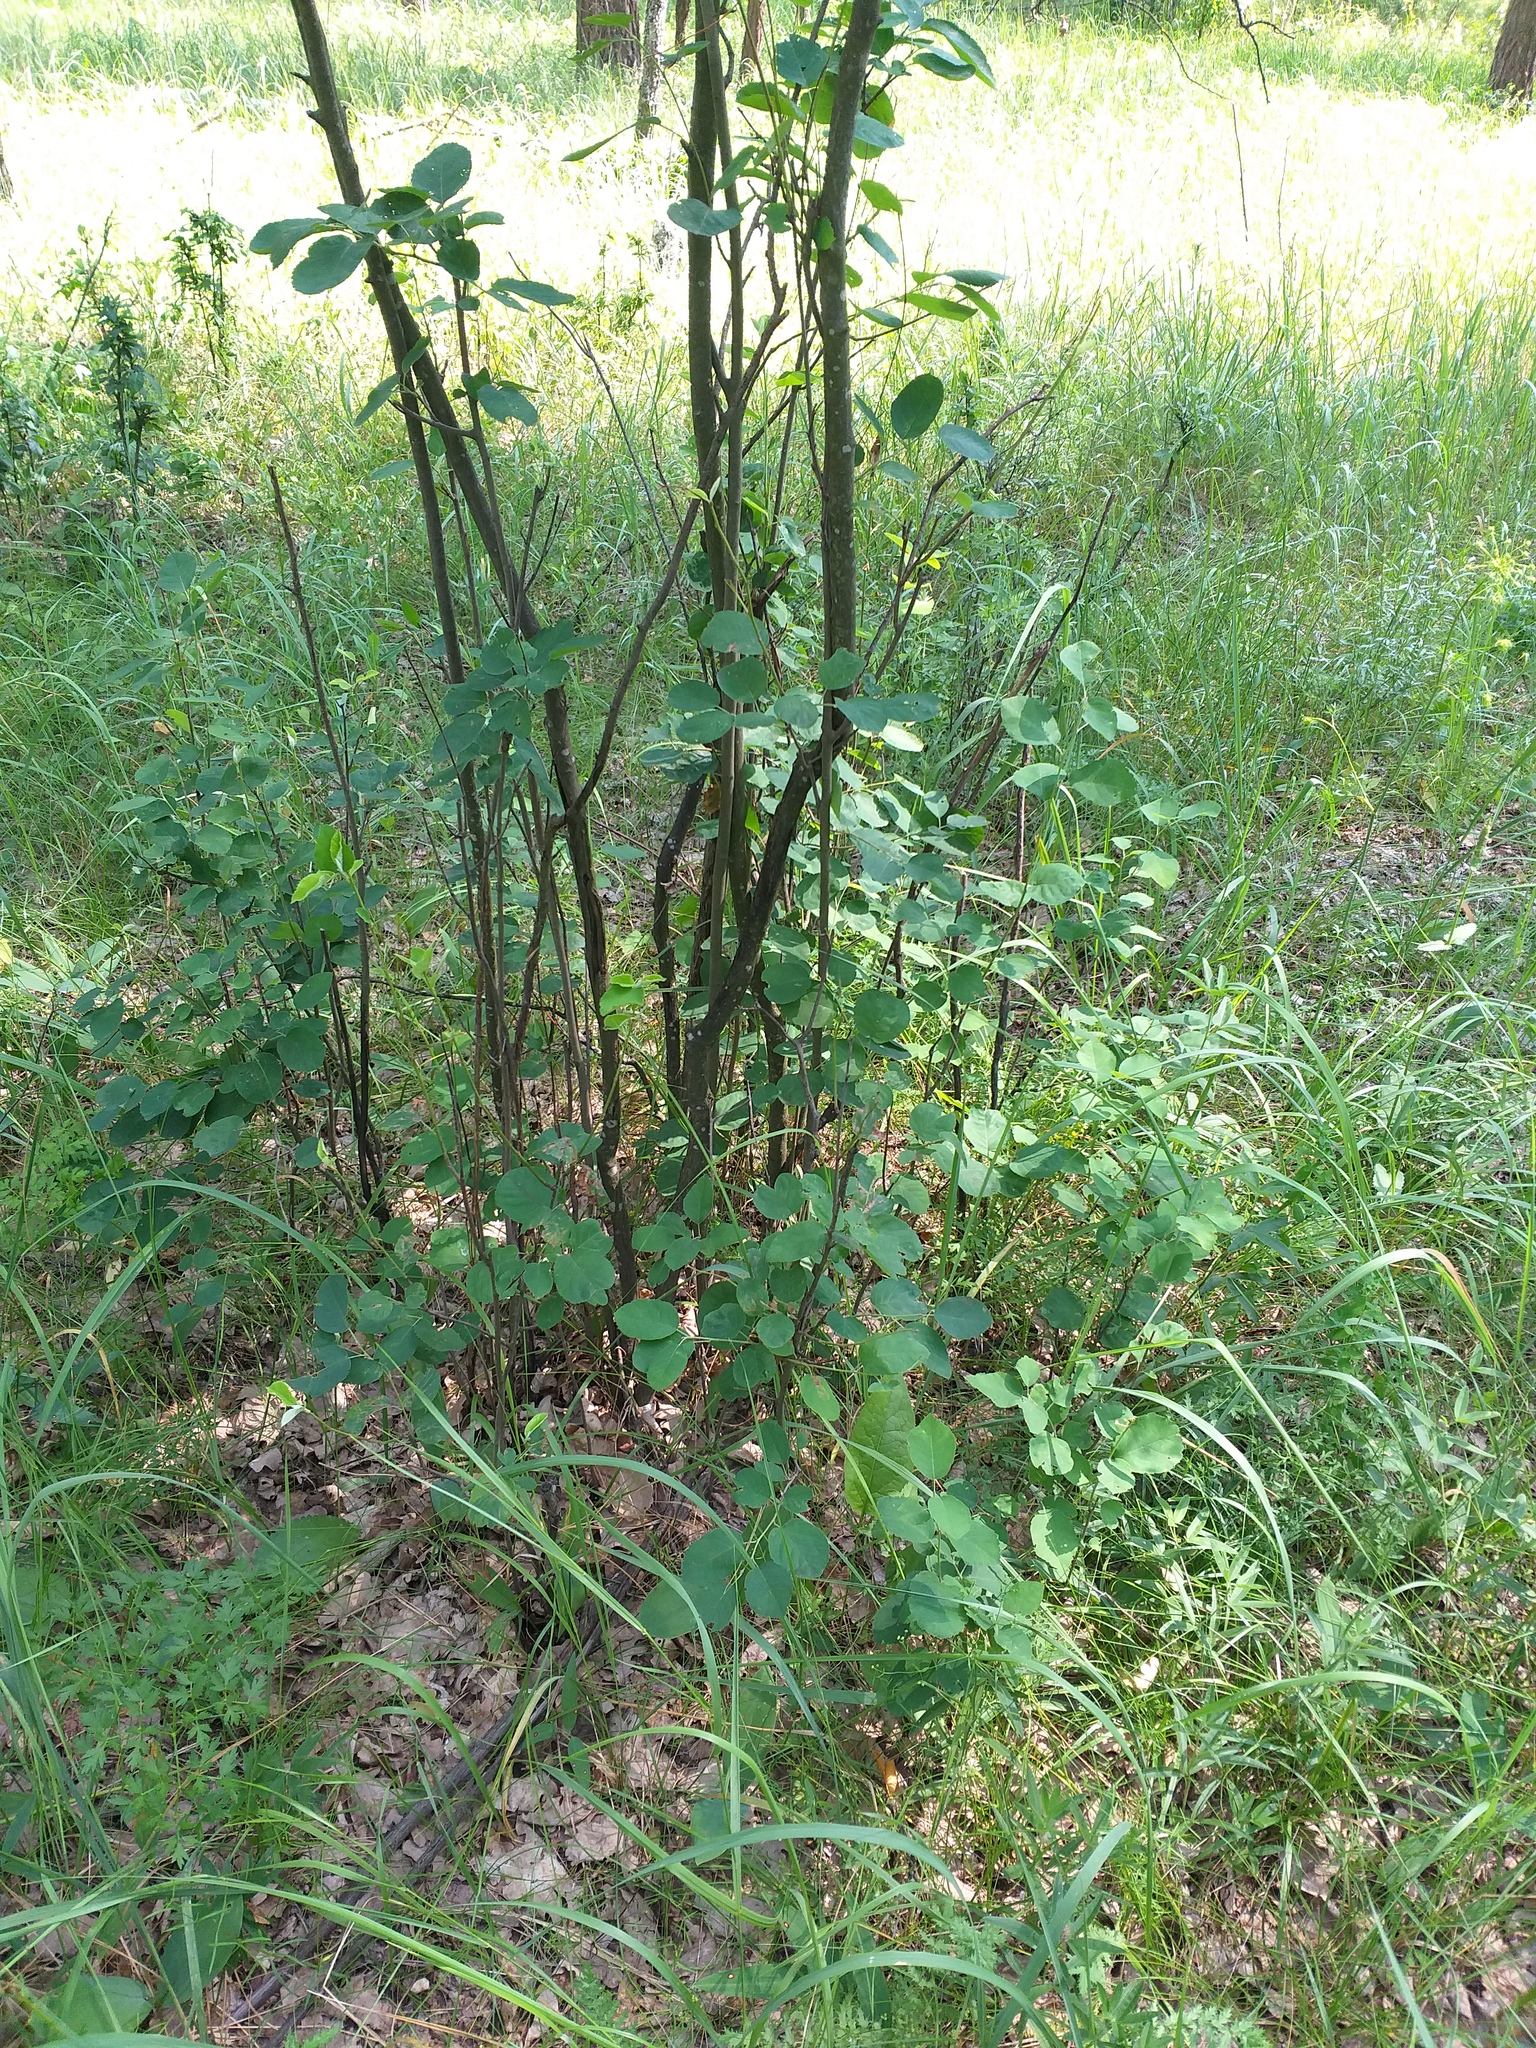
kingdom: Plantae
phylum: Tracheophyta
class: Magnoliopsida
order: Rosales
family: Rosaceae
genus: Amelanchier
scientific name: Amelanchier
